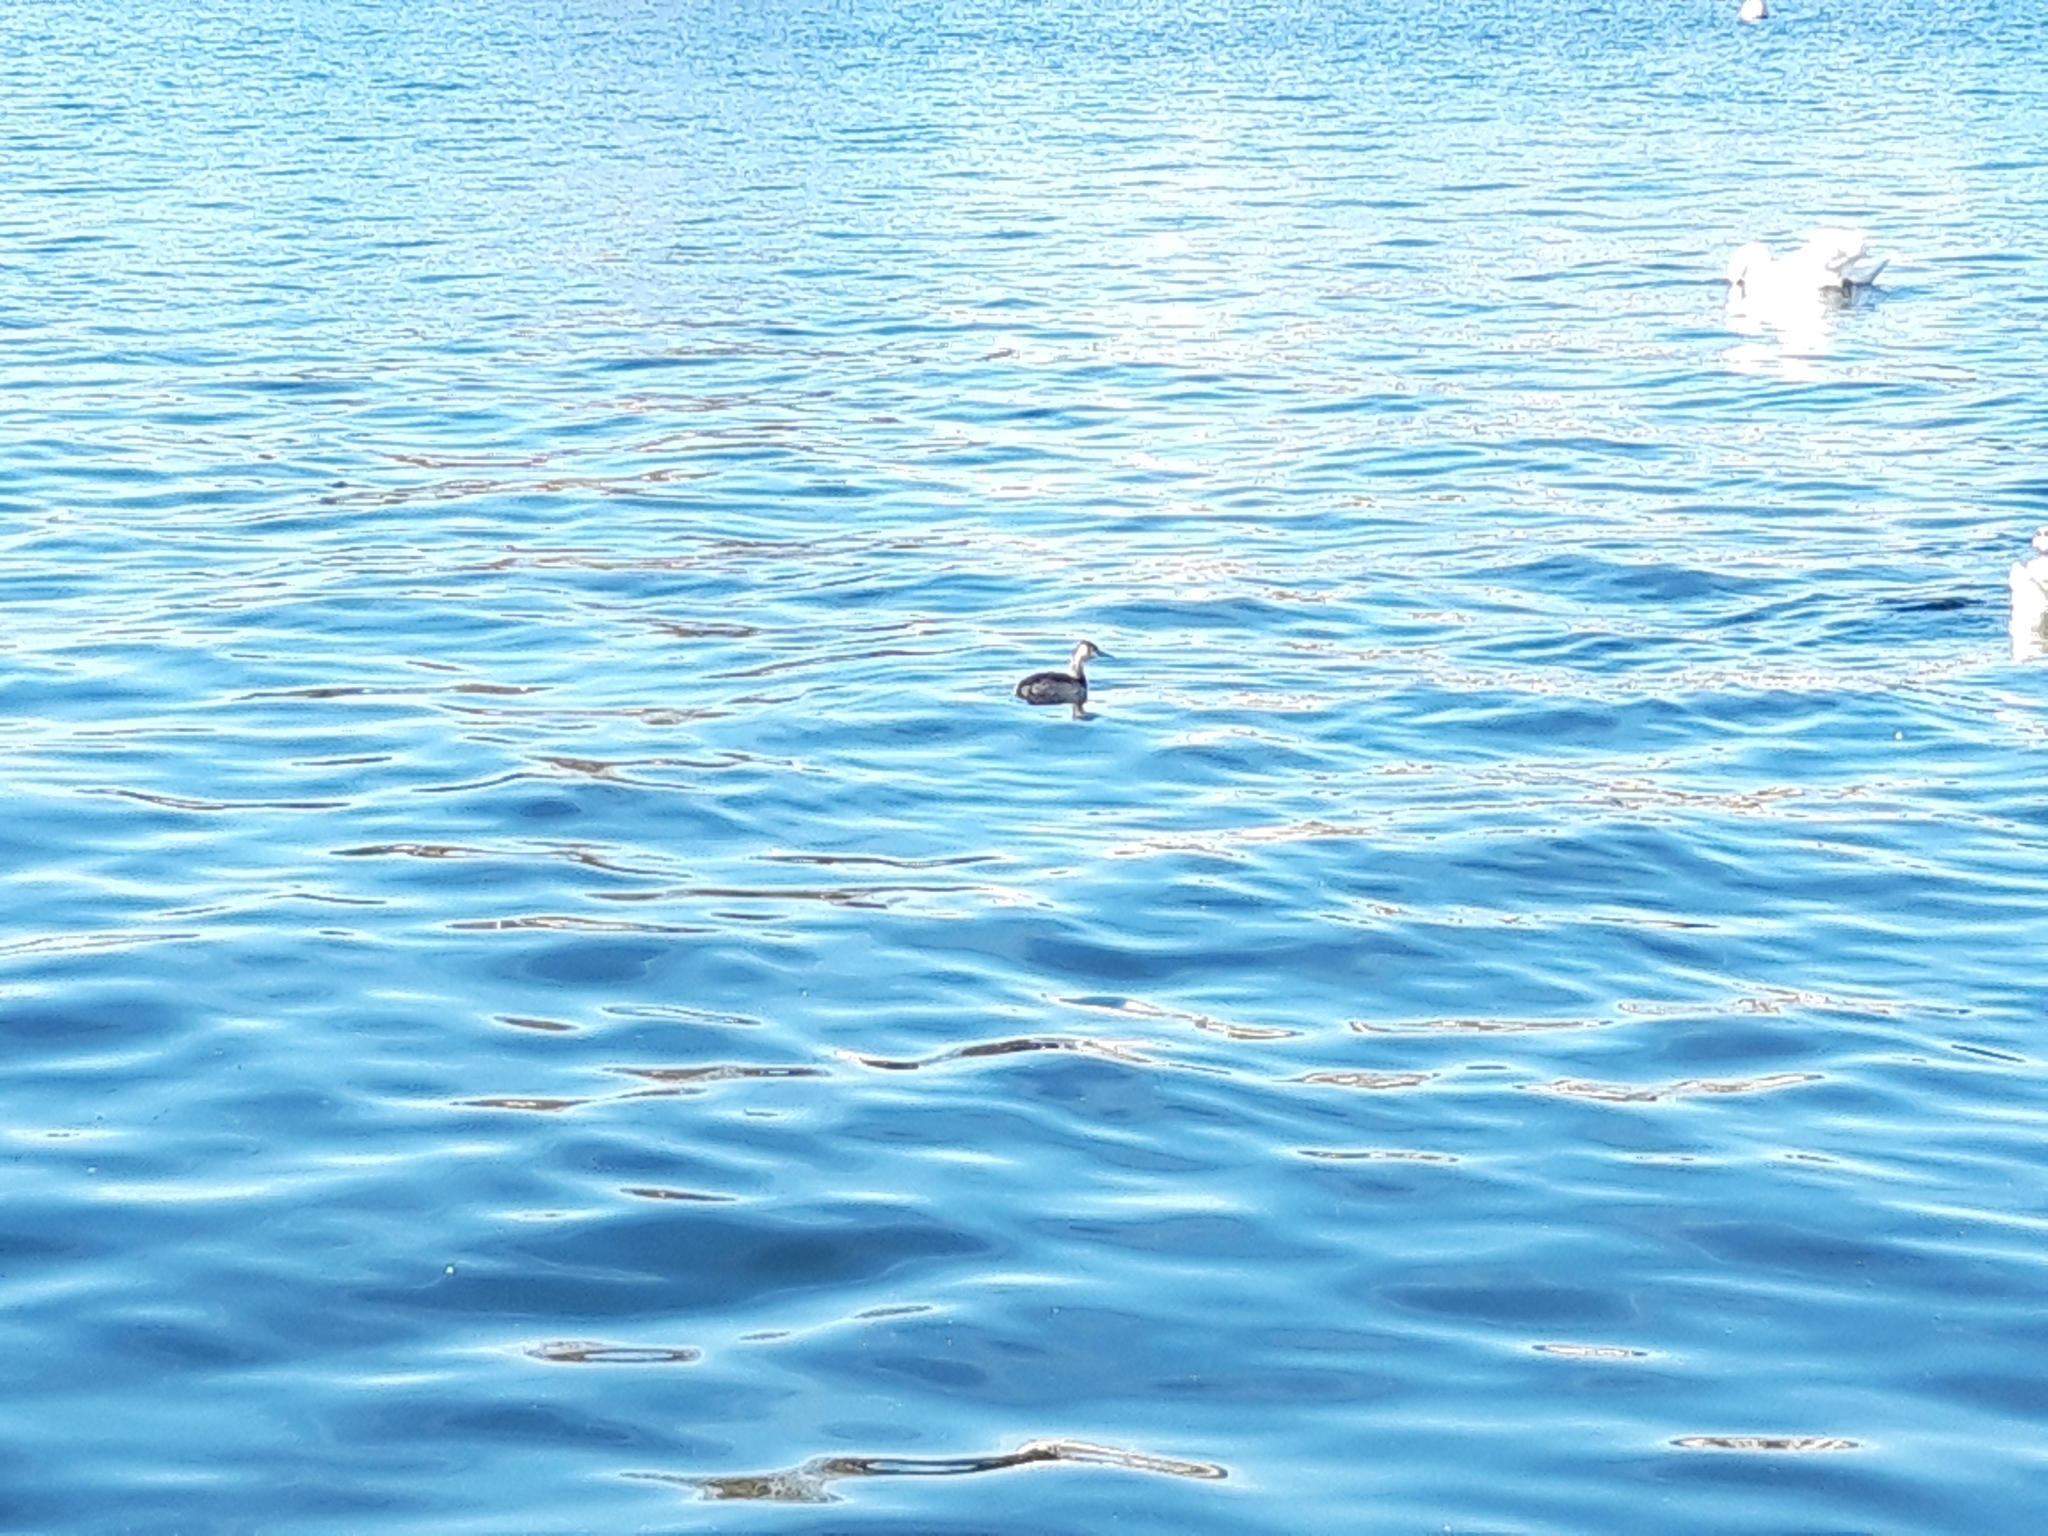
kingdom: Animalia
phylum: Chordata
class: Aves
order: Podicipediformes
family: Podicipedidae
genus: Podiceps
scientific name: Podiceps cristatus
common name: Great crested grebe
